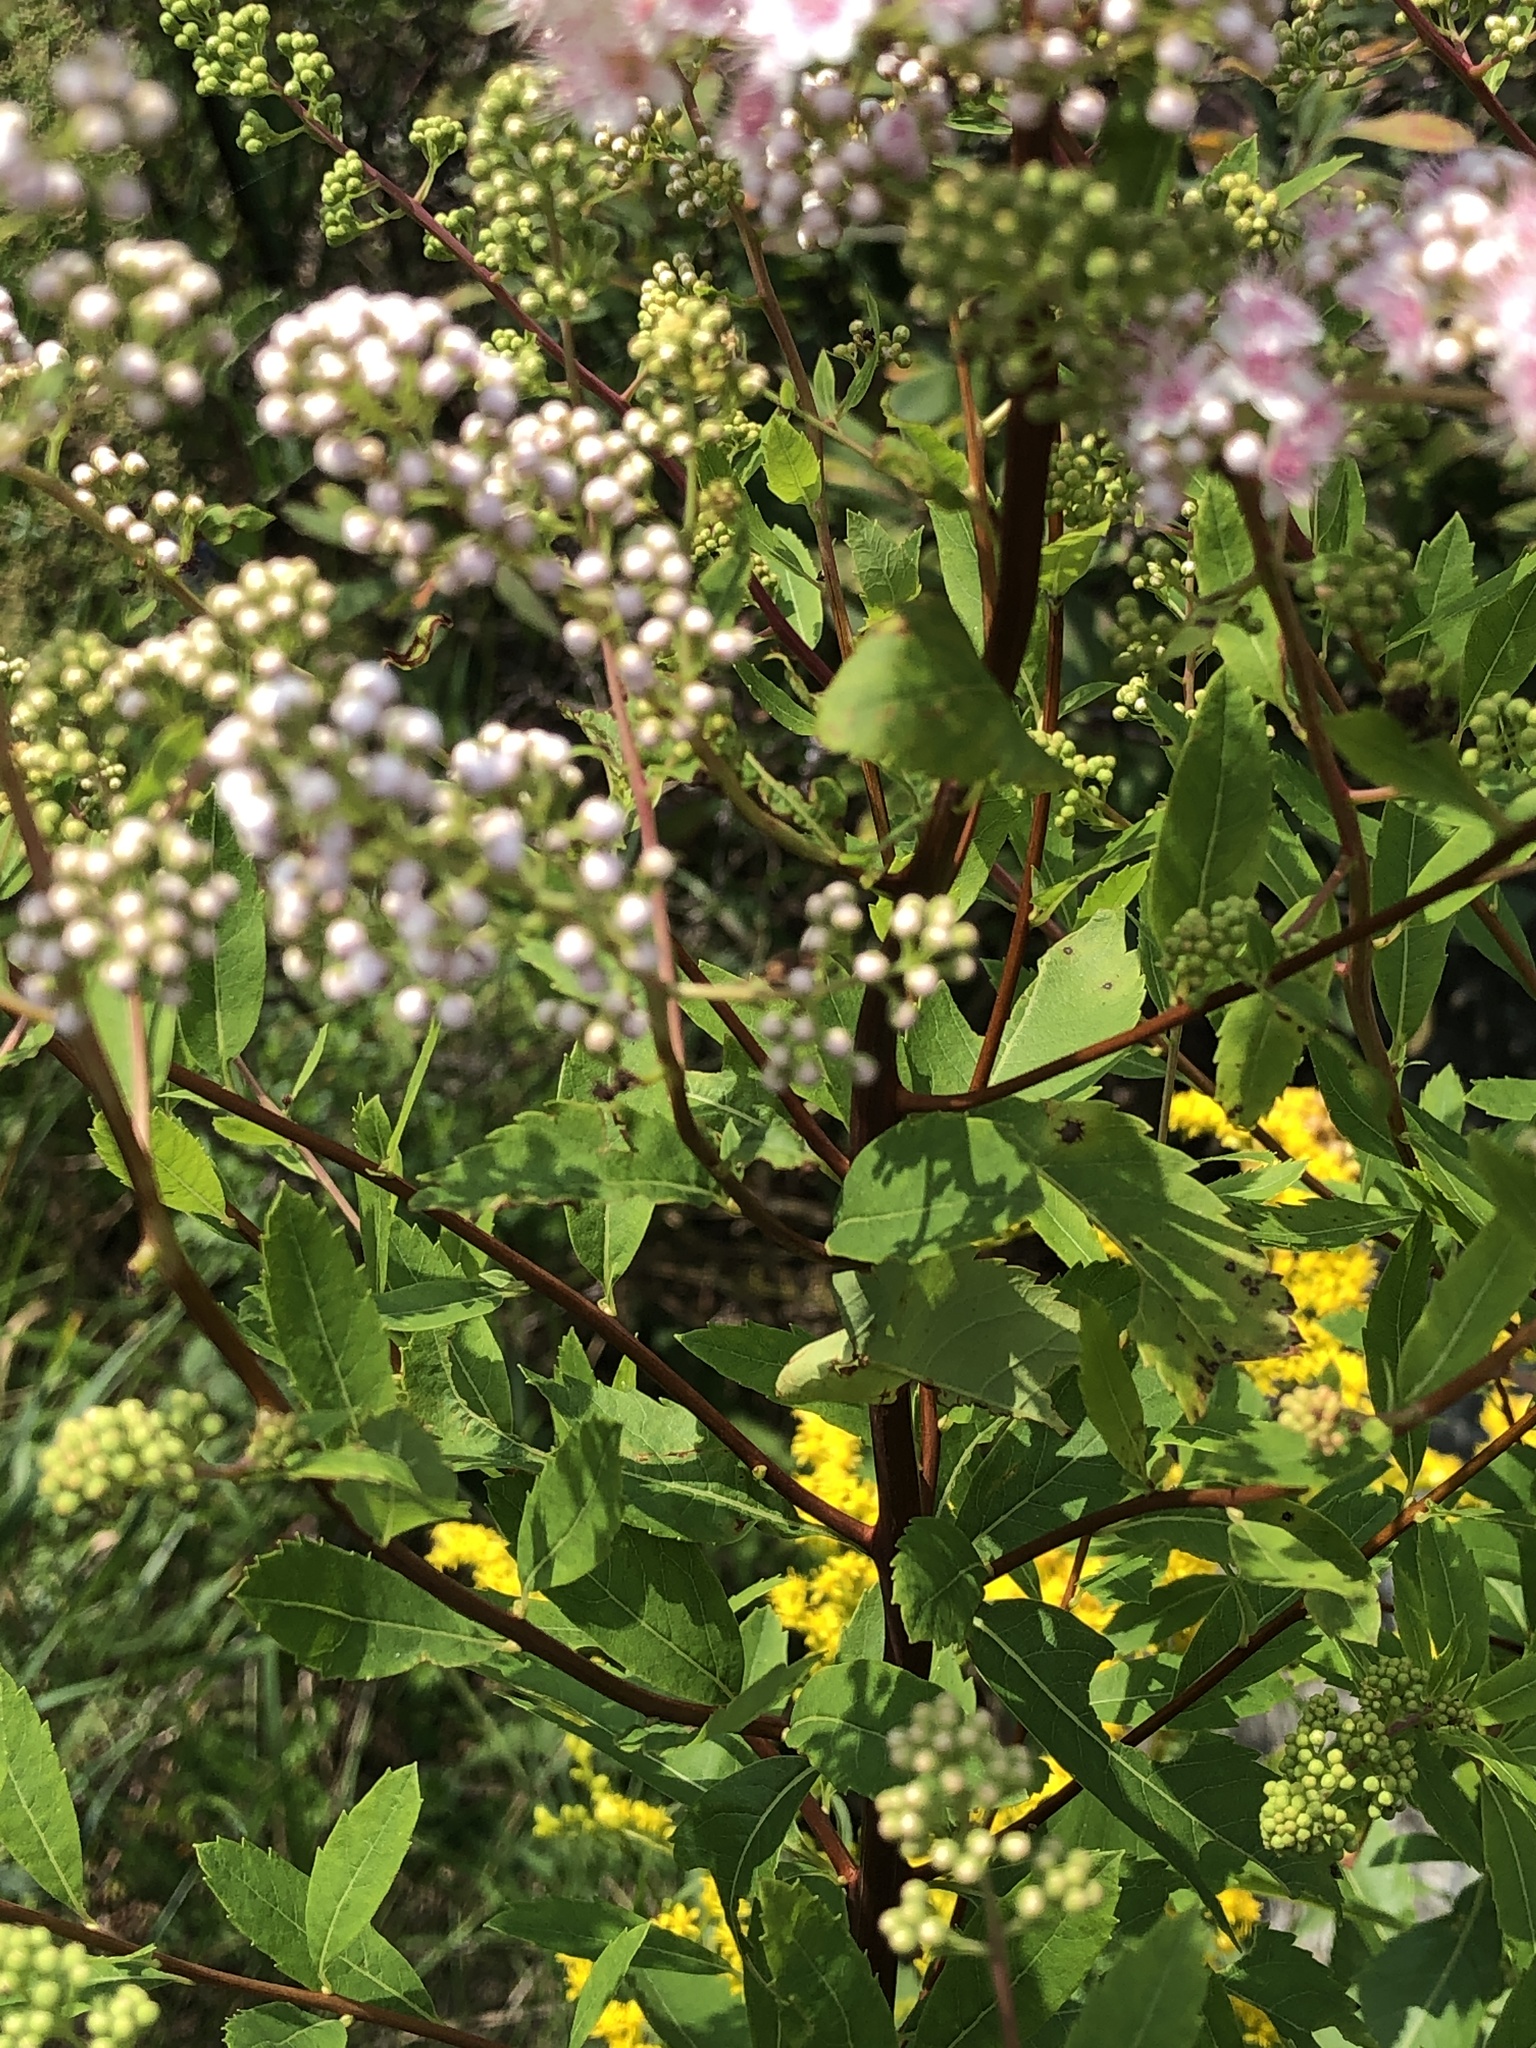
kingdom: Plantae
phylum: Tracheophyta
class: Magnoliopsida
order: Rosales
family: Rosaceae
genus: Spiraea
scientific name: Spiraea alba
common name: Pale bridewort
